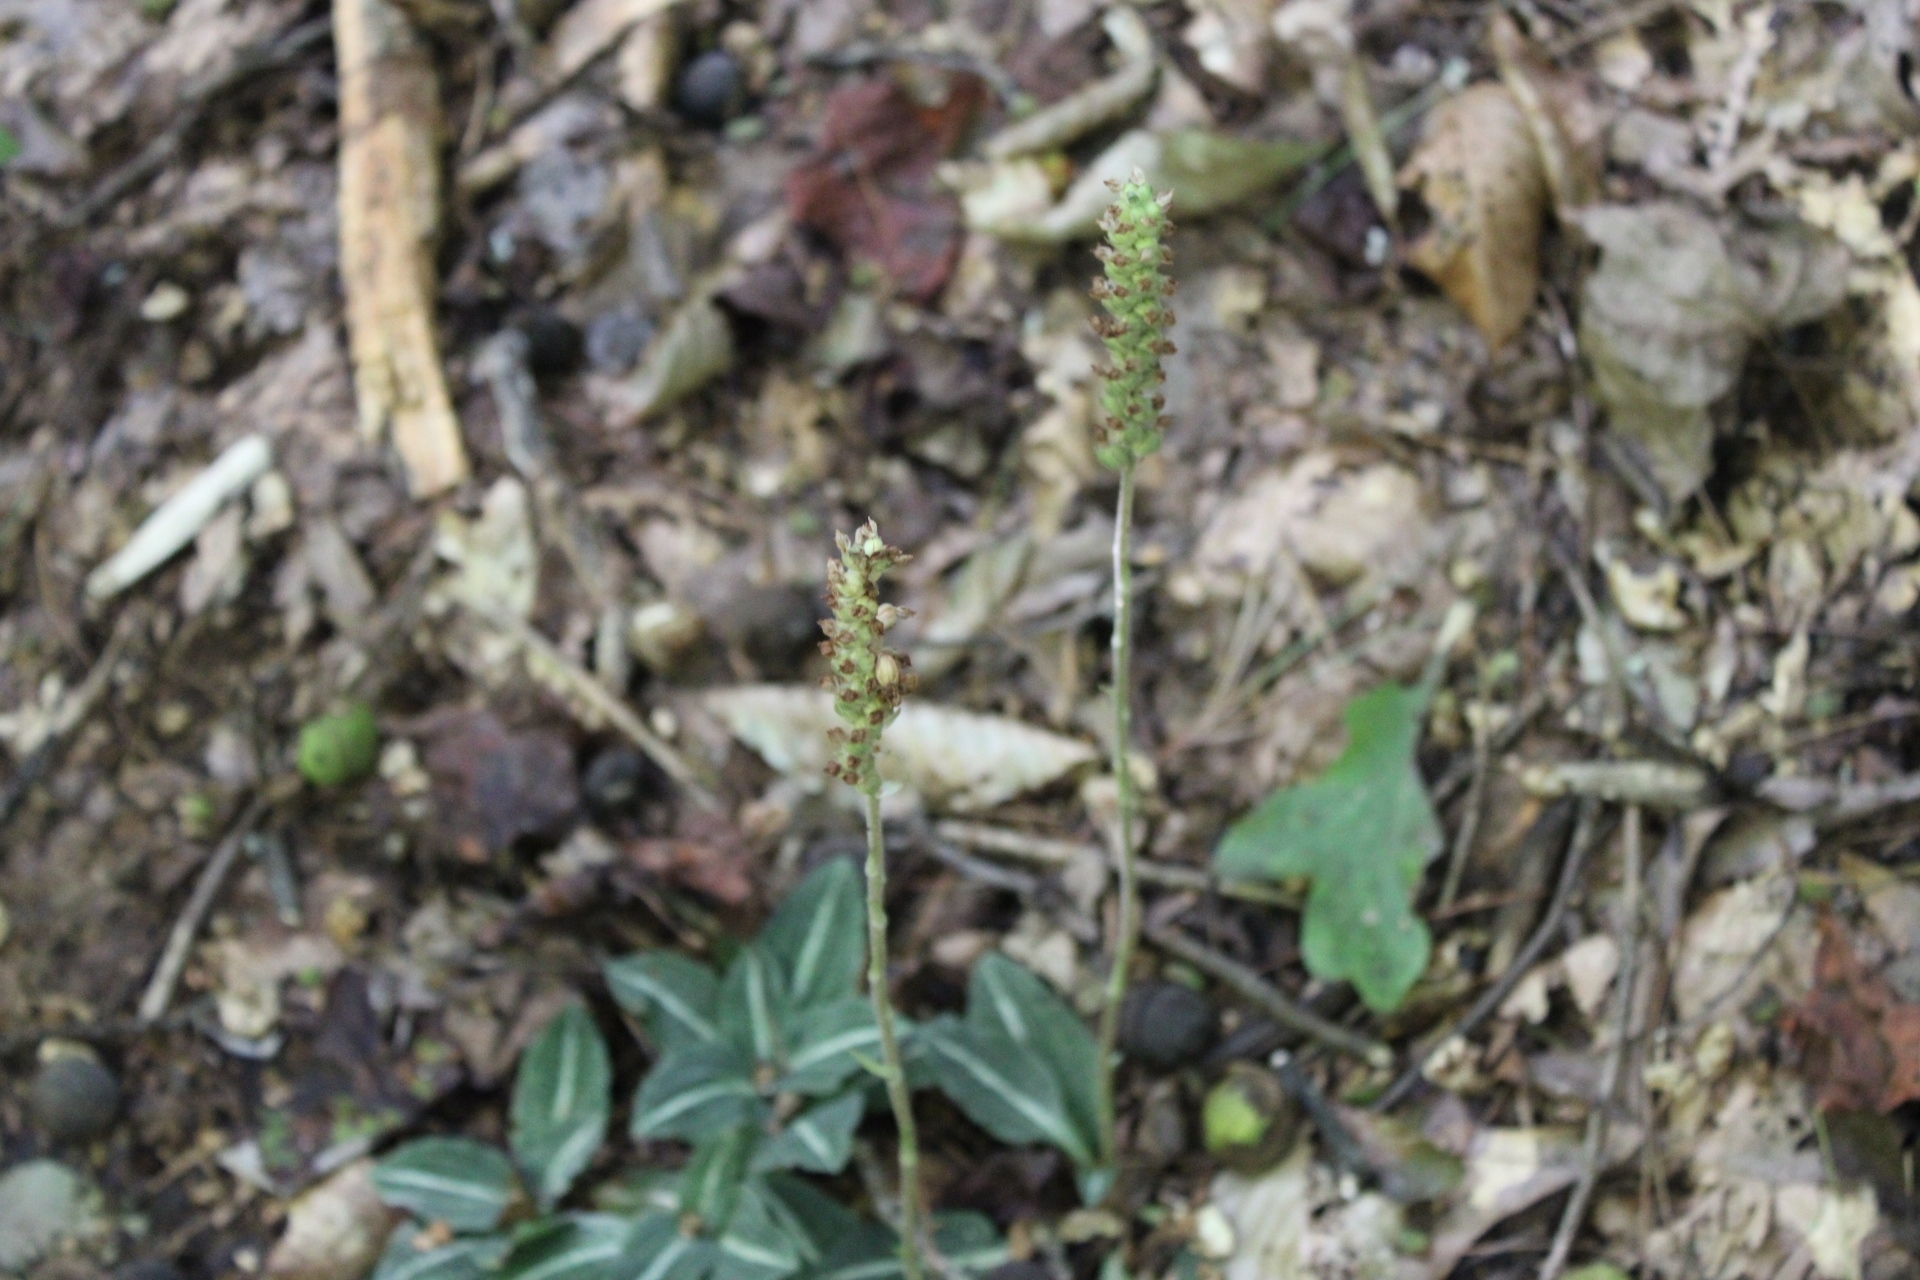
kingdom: Plantae
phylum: Tracheophyta
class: Liliopsida
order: Asparagales
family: Orchidaceae
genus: Goodyera
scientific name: Goodyera pubescens
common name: Downy rattlesnake-plantain
